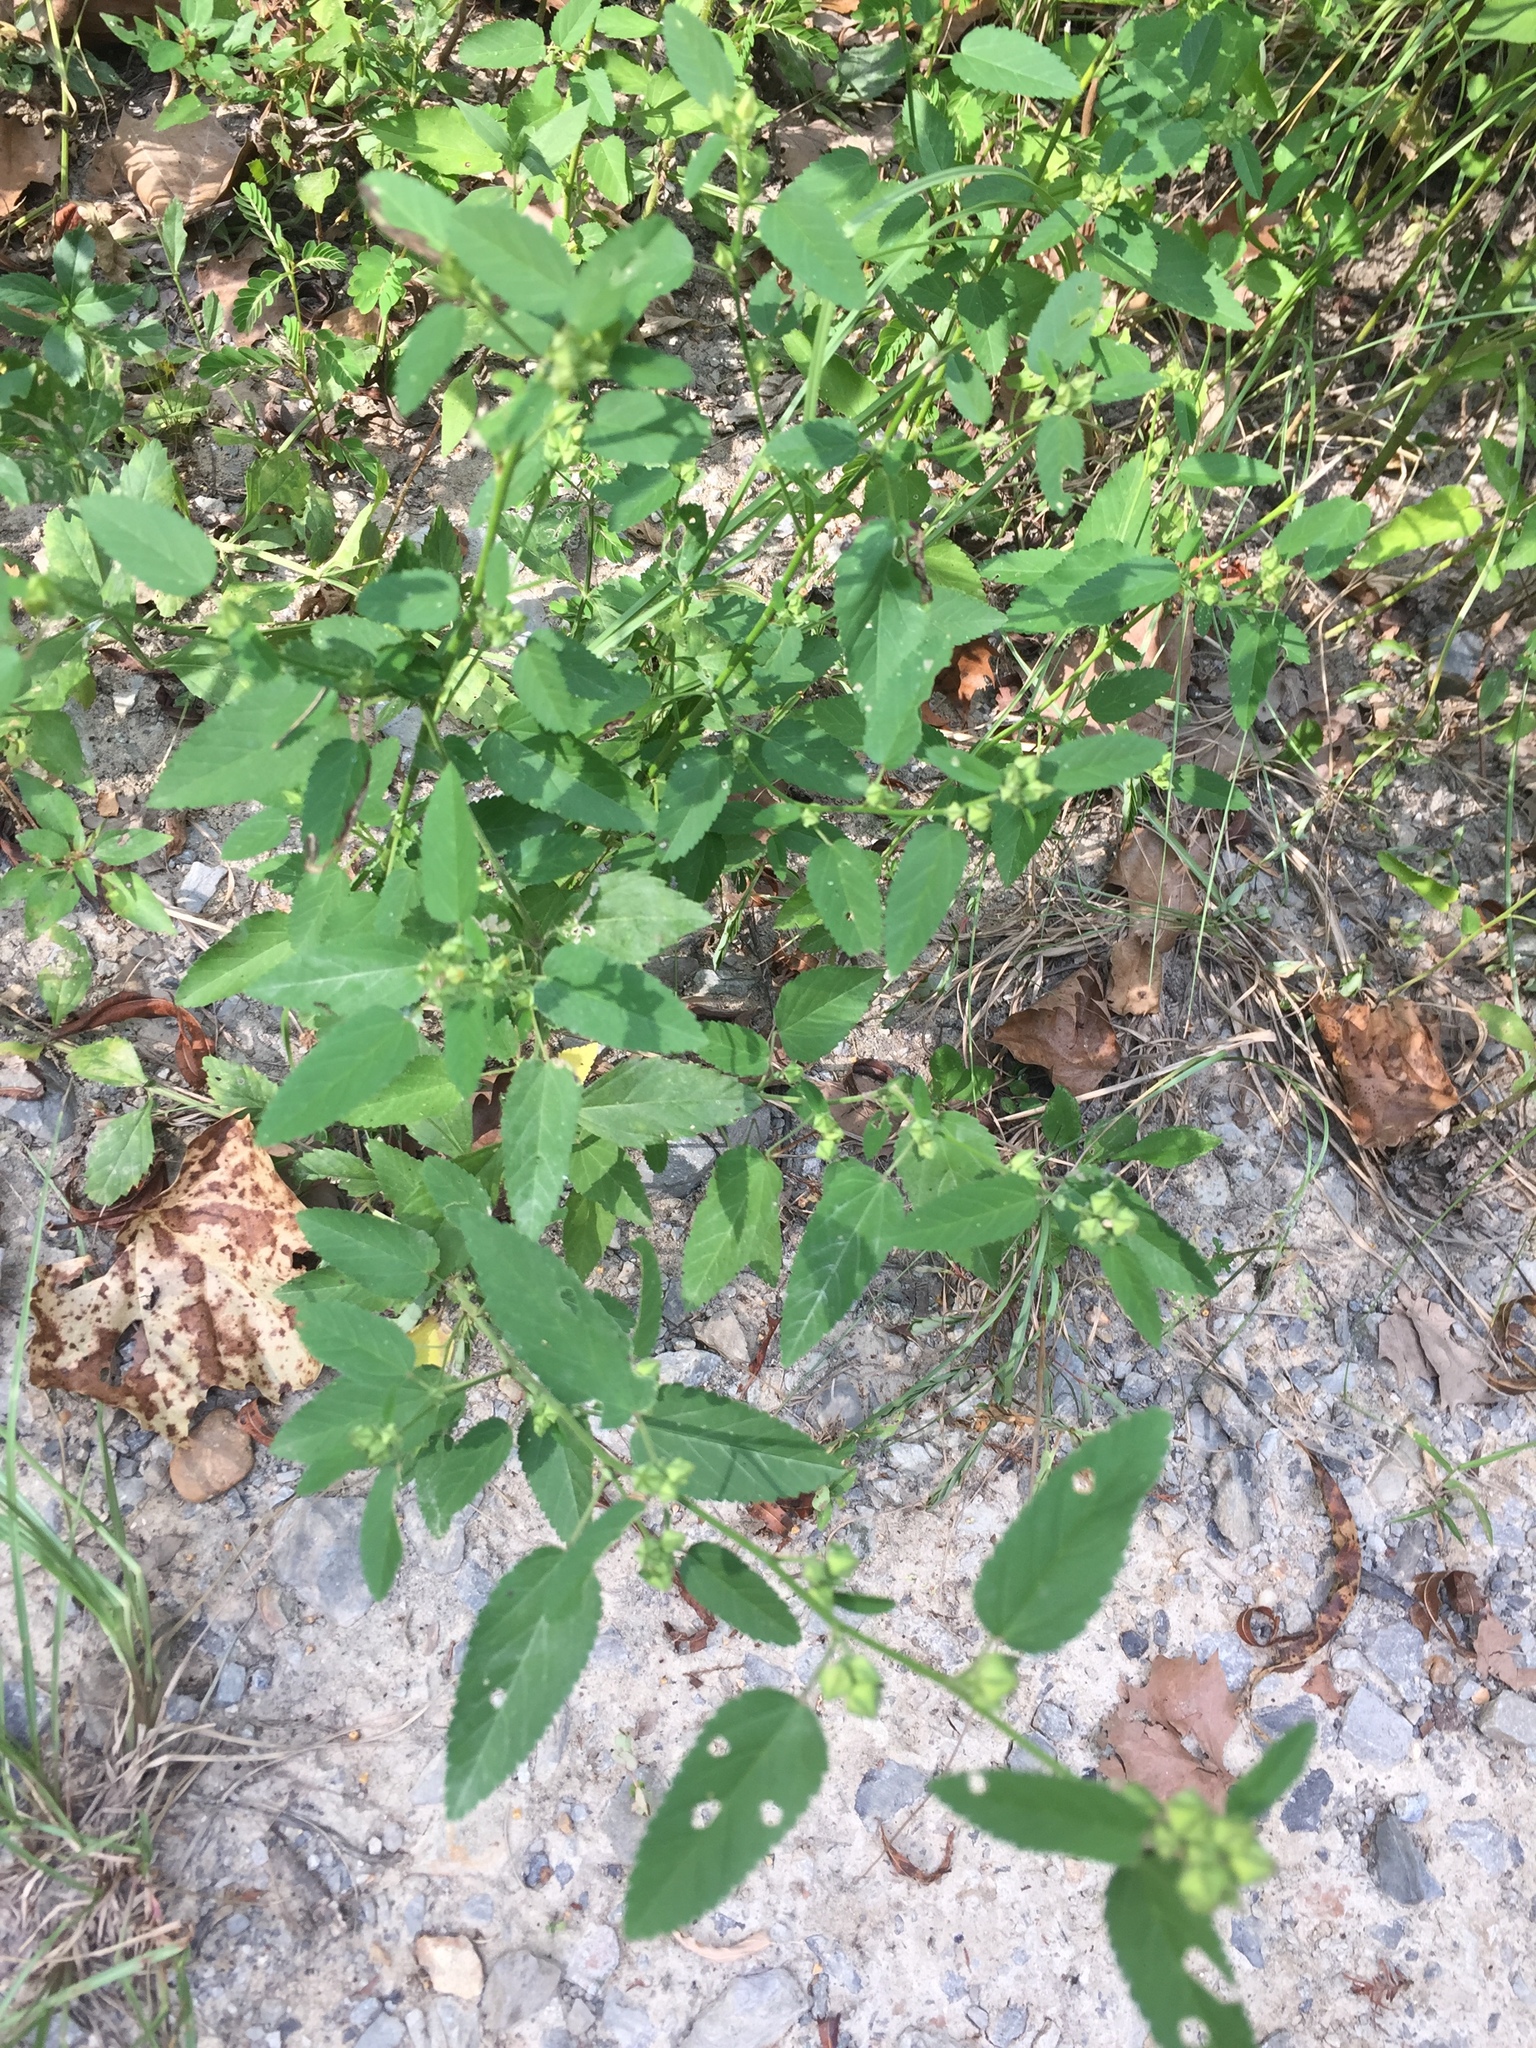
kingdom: Plantae
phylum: Tracheophyta
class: Magnoliopsida
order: Malvales
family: Malvaceae
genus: Sida
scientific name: Sida spinosa
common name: Prickly fanpetals
